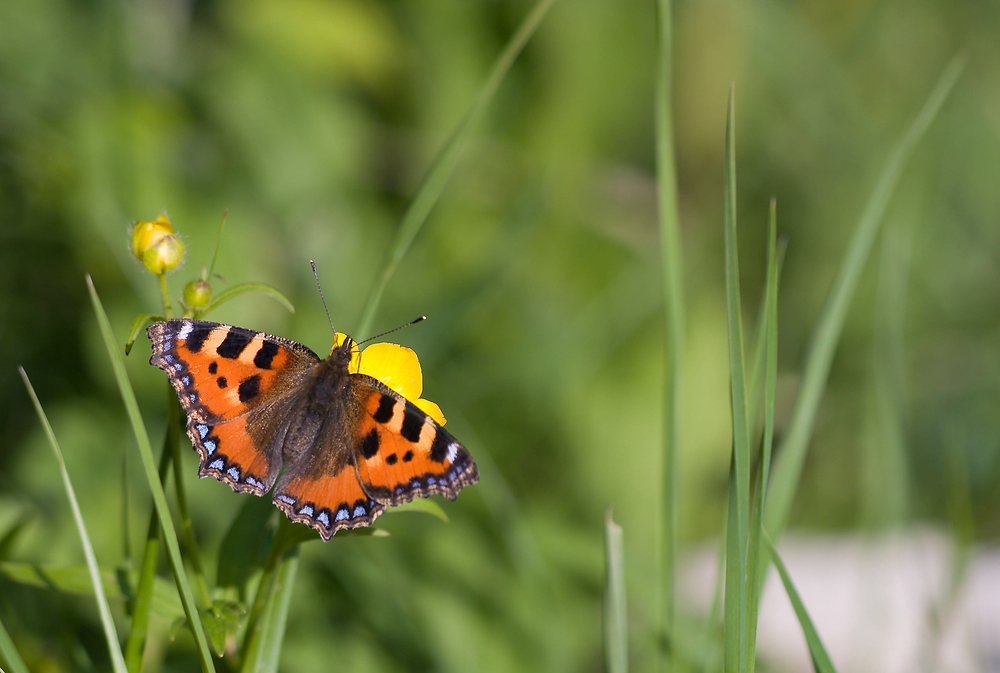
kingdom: Animalia
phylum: Arthropoda
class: Insecta
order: Lepidoptera
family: Nymphalidae
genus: Aglais
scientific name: Aglais urticae
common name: Small tortoiseshell
